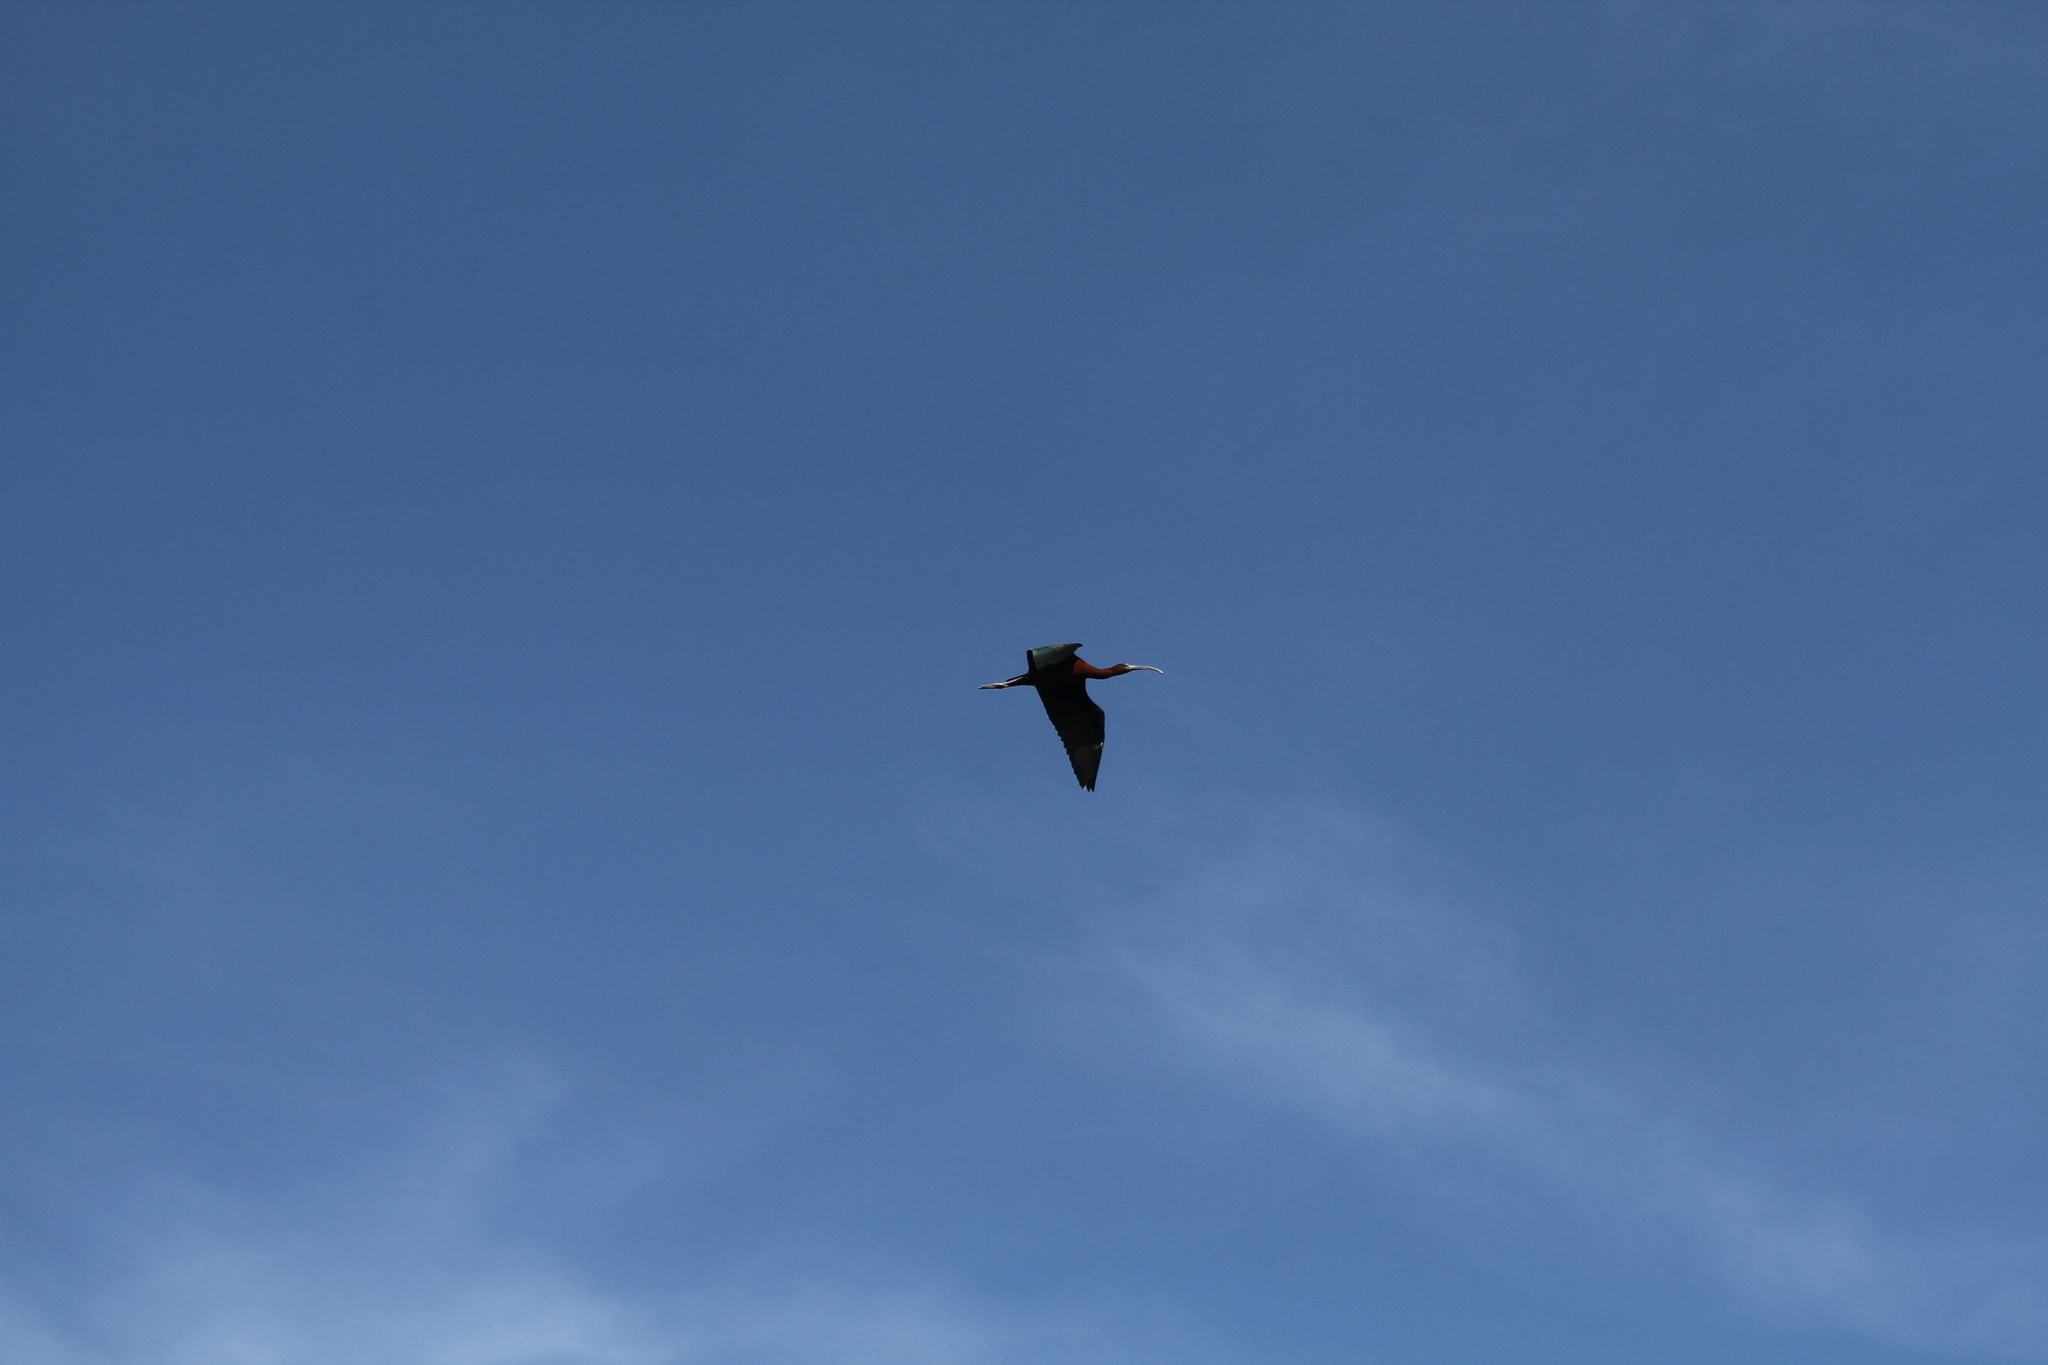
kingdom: Animalia
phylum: Chordata
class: Aves
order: Pelecaniformes
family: Threskiornithidae
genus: Plegadis
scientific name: Plegadis falcinellus
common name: Glossy ibis
